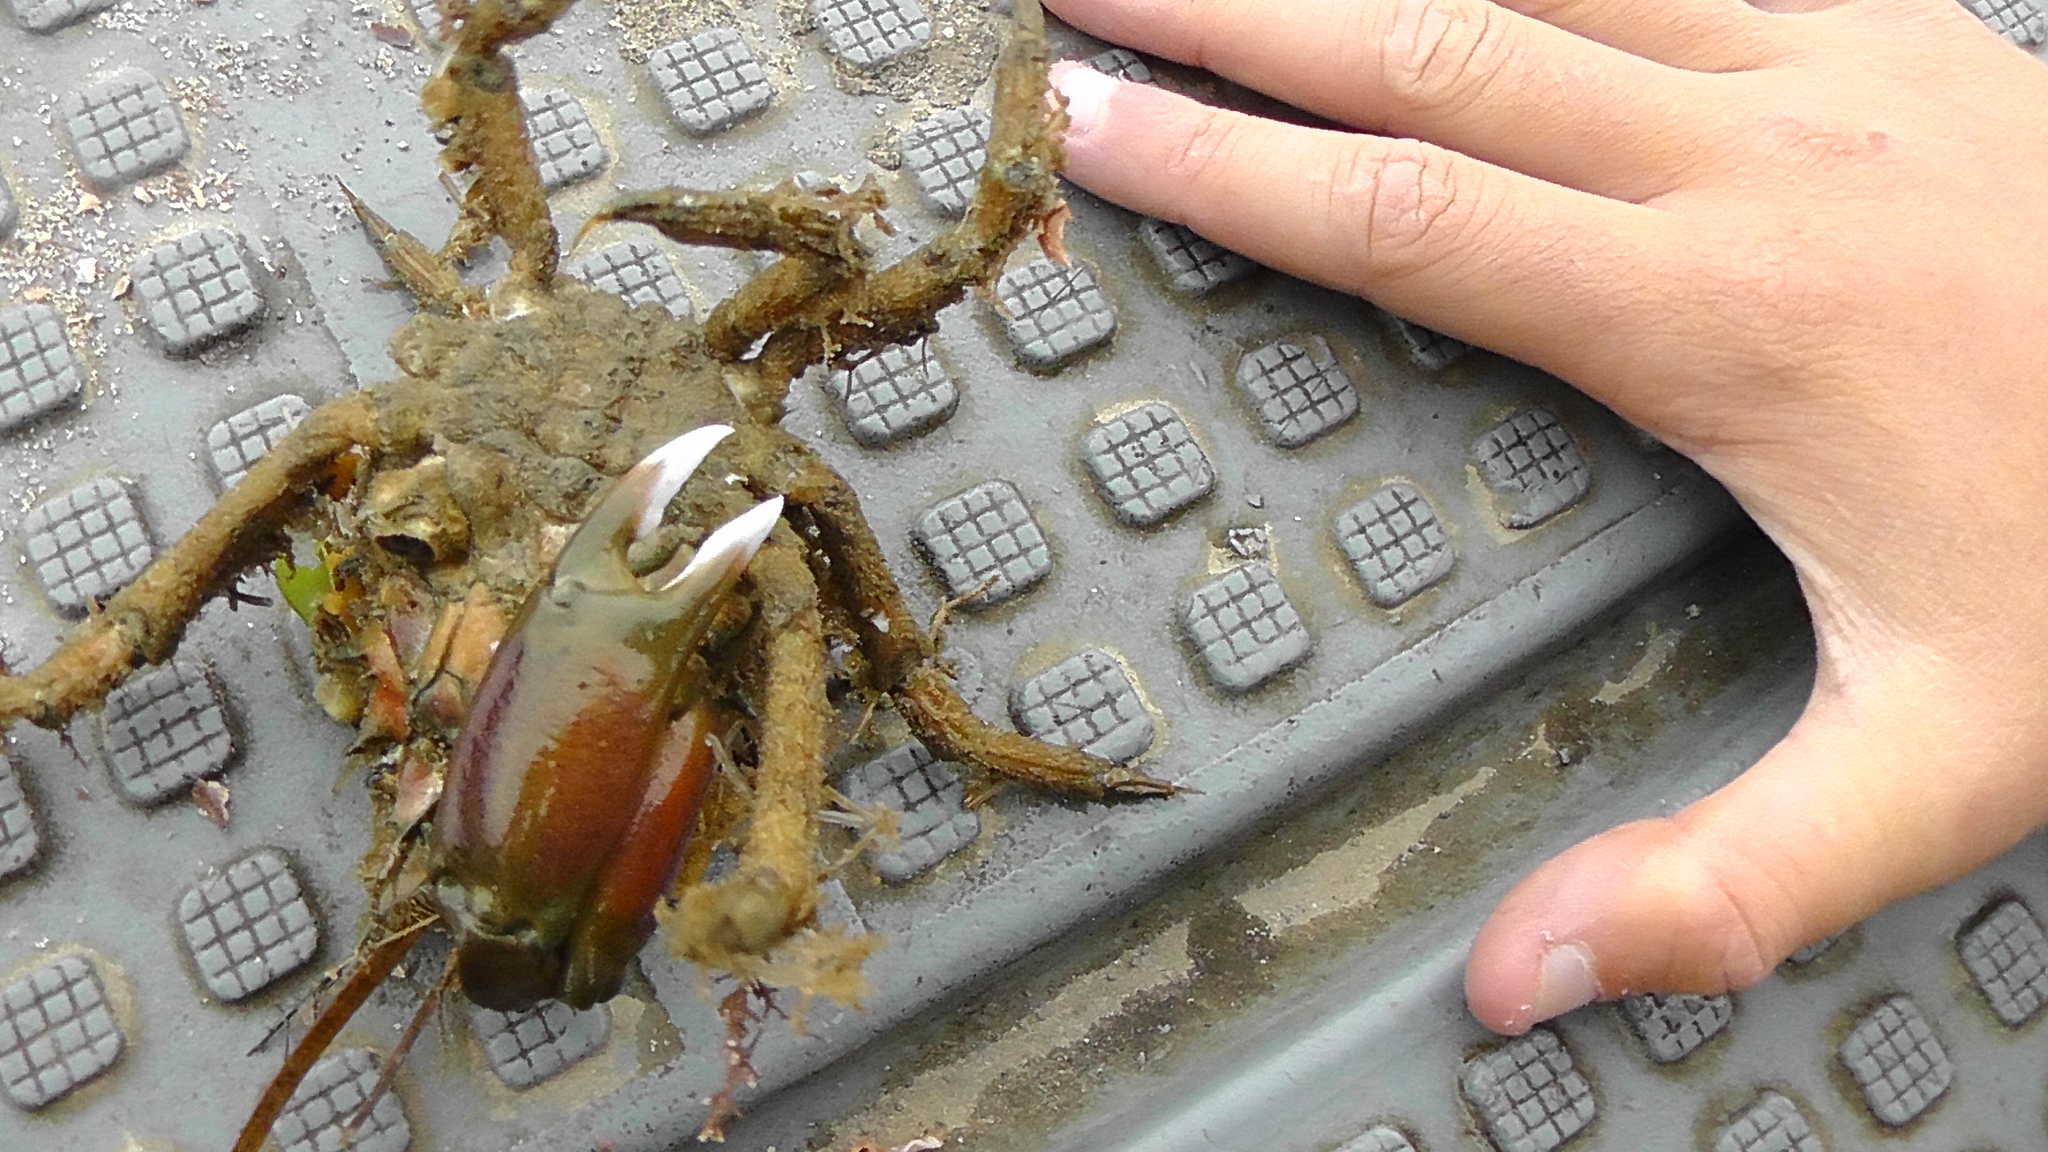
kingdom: Animalia
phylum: Arthropoda
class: Malacostraca
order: Decapoda
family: Majidae
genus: Notomithrax
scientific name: Notomithrax peronii
